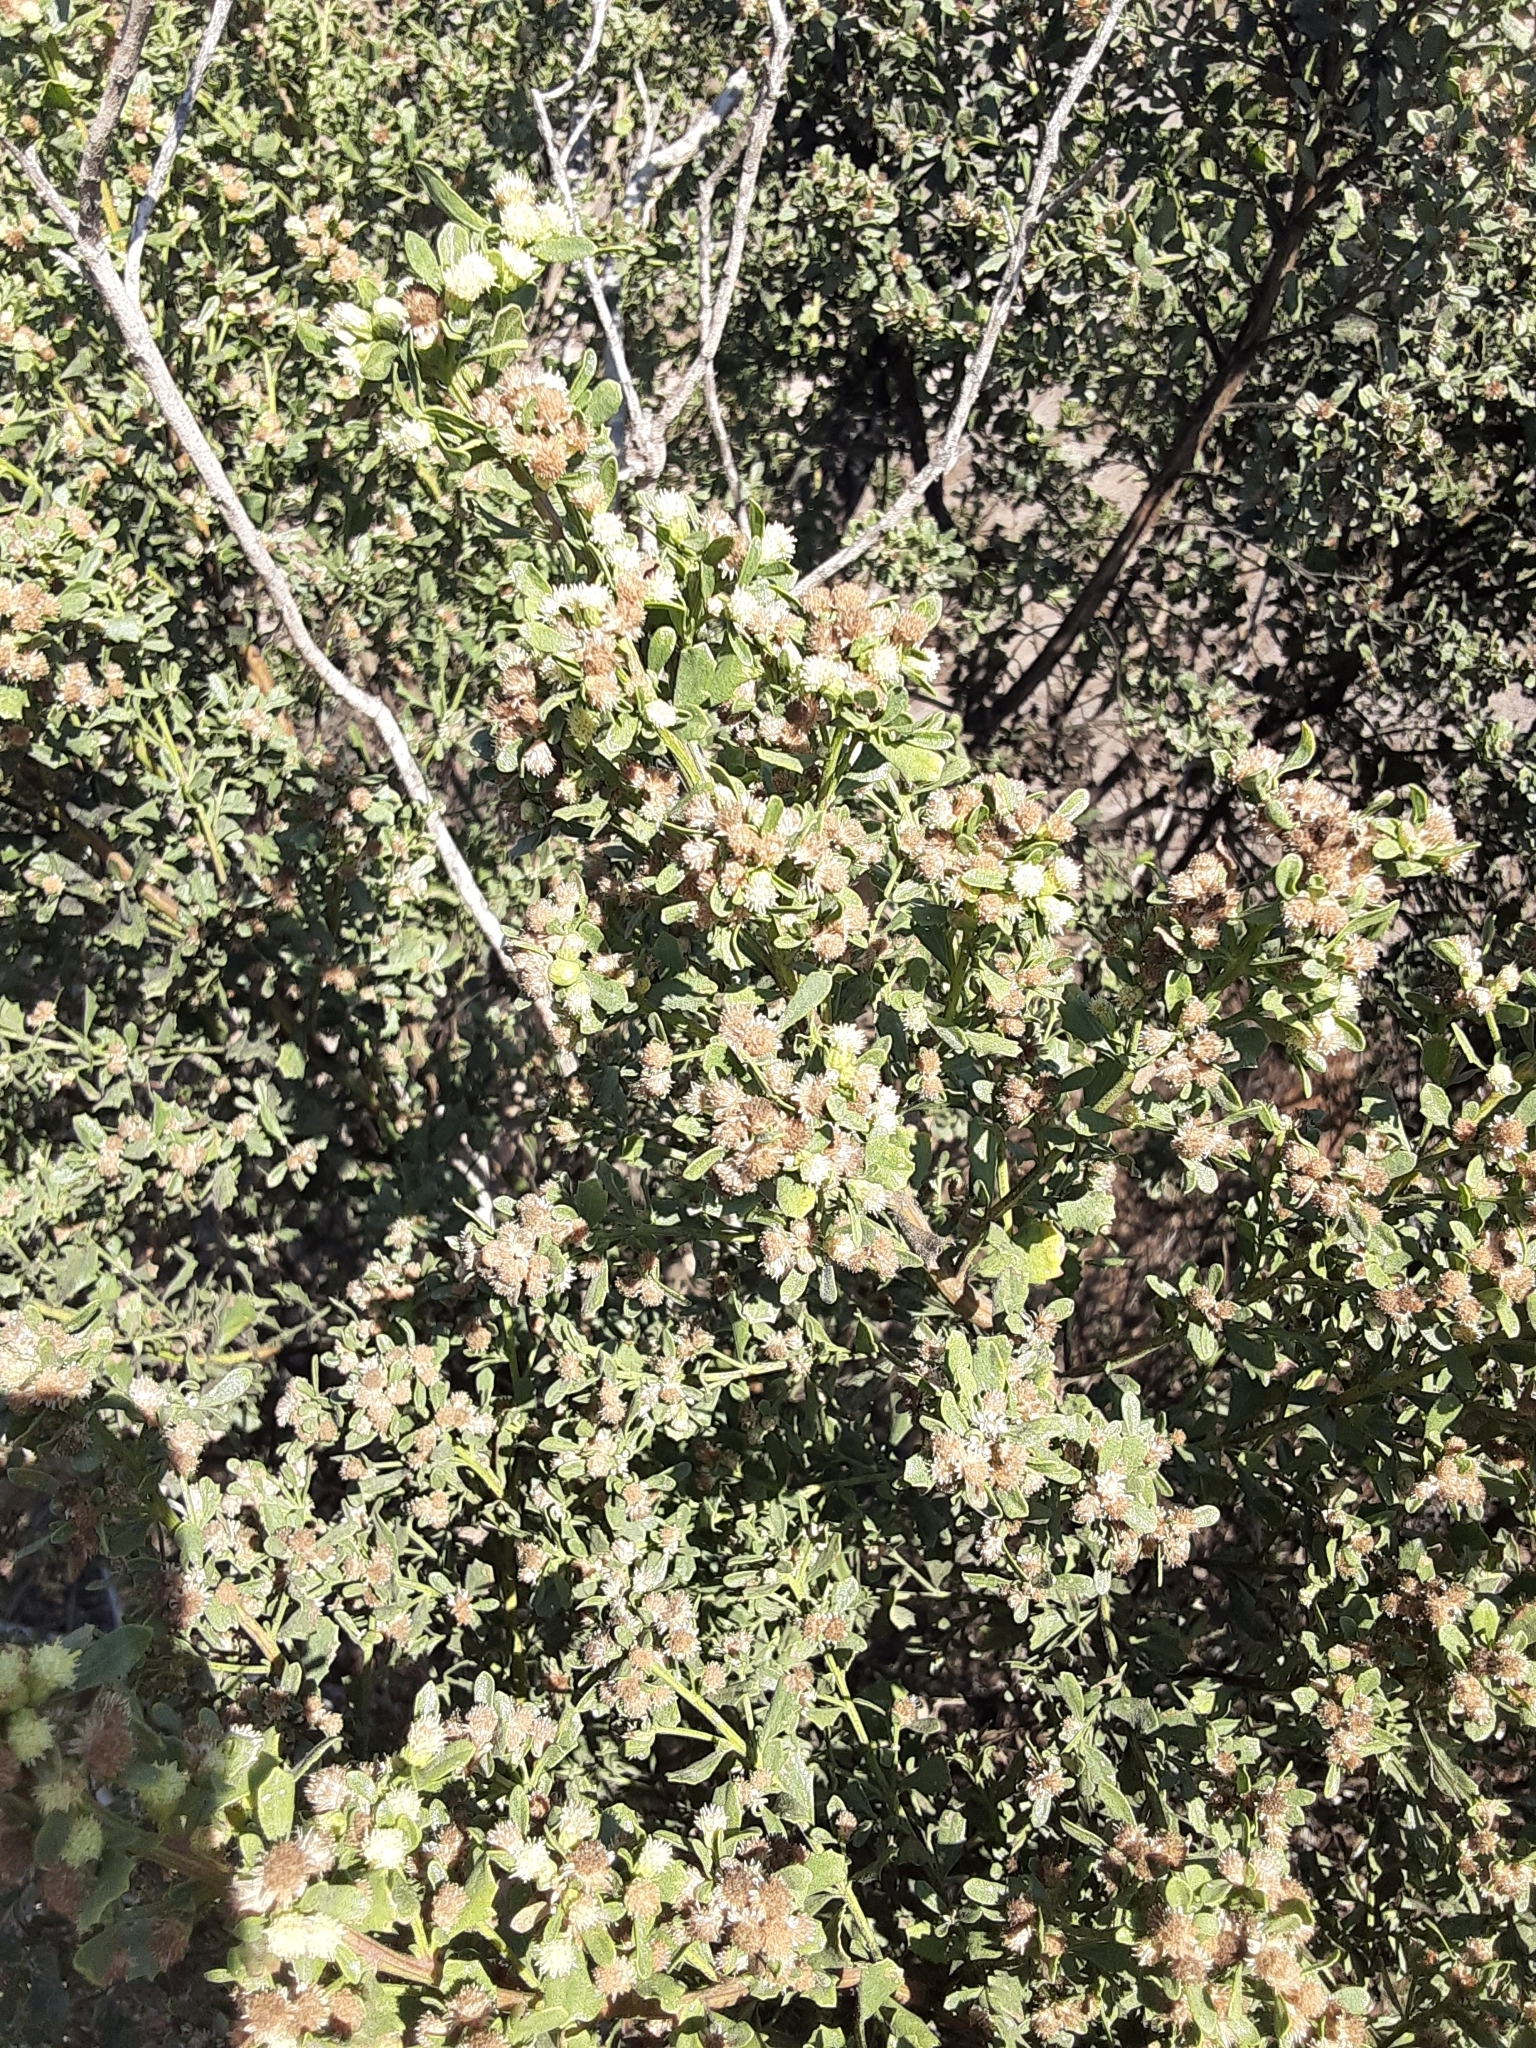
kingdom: Plantae
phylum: Tracheophyta
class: Magnoliopsida
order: Asterales
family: Asteraceae
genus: Baccharis
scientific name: Baccharis pilularis
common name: Coyotebrush
